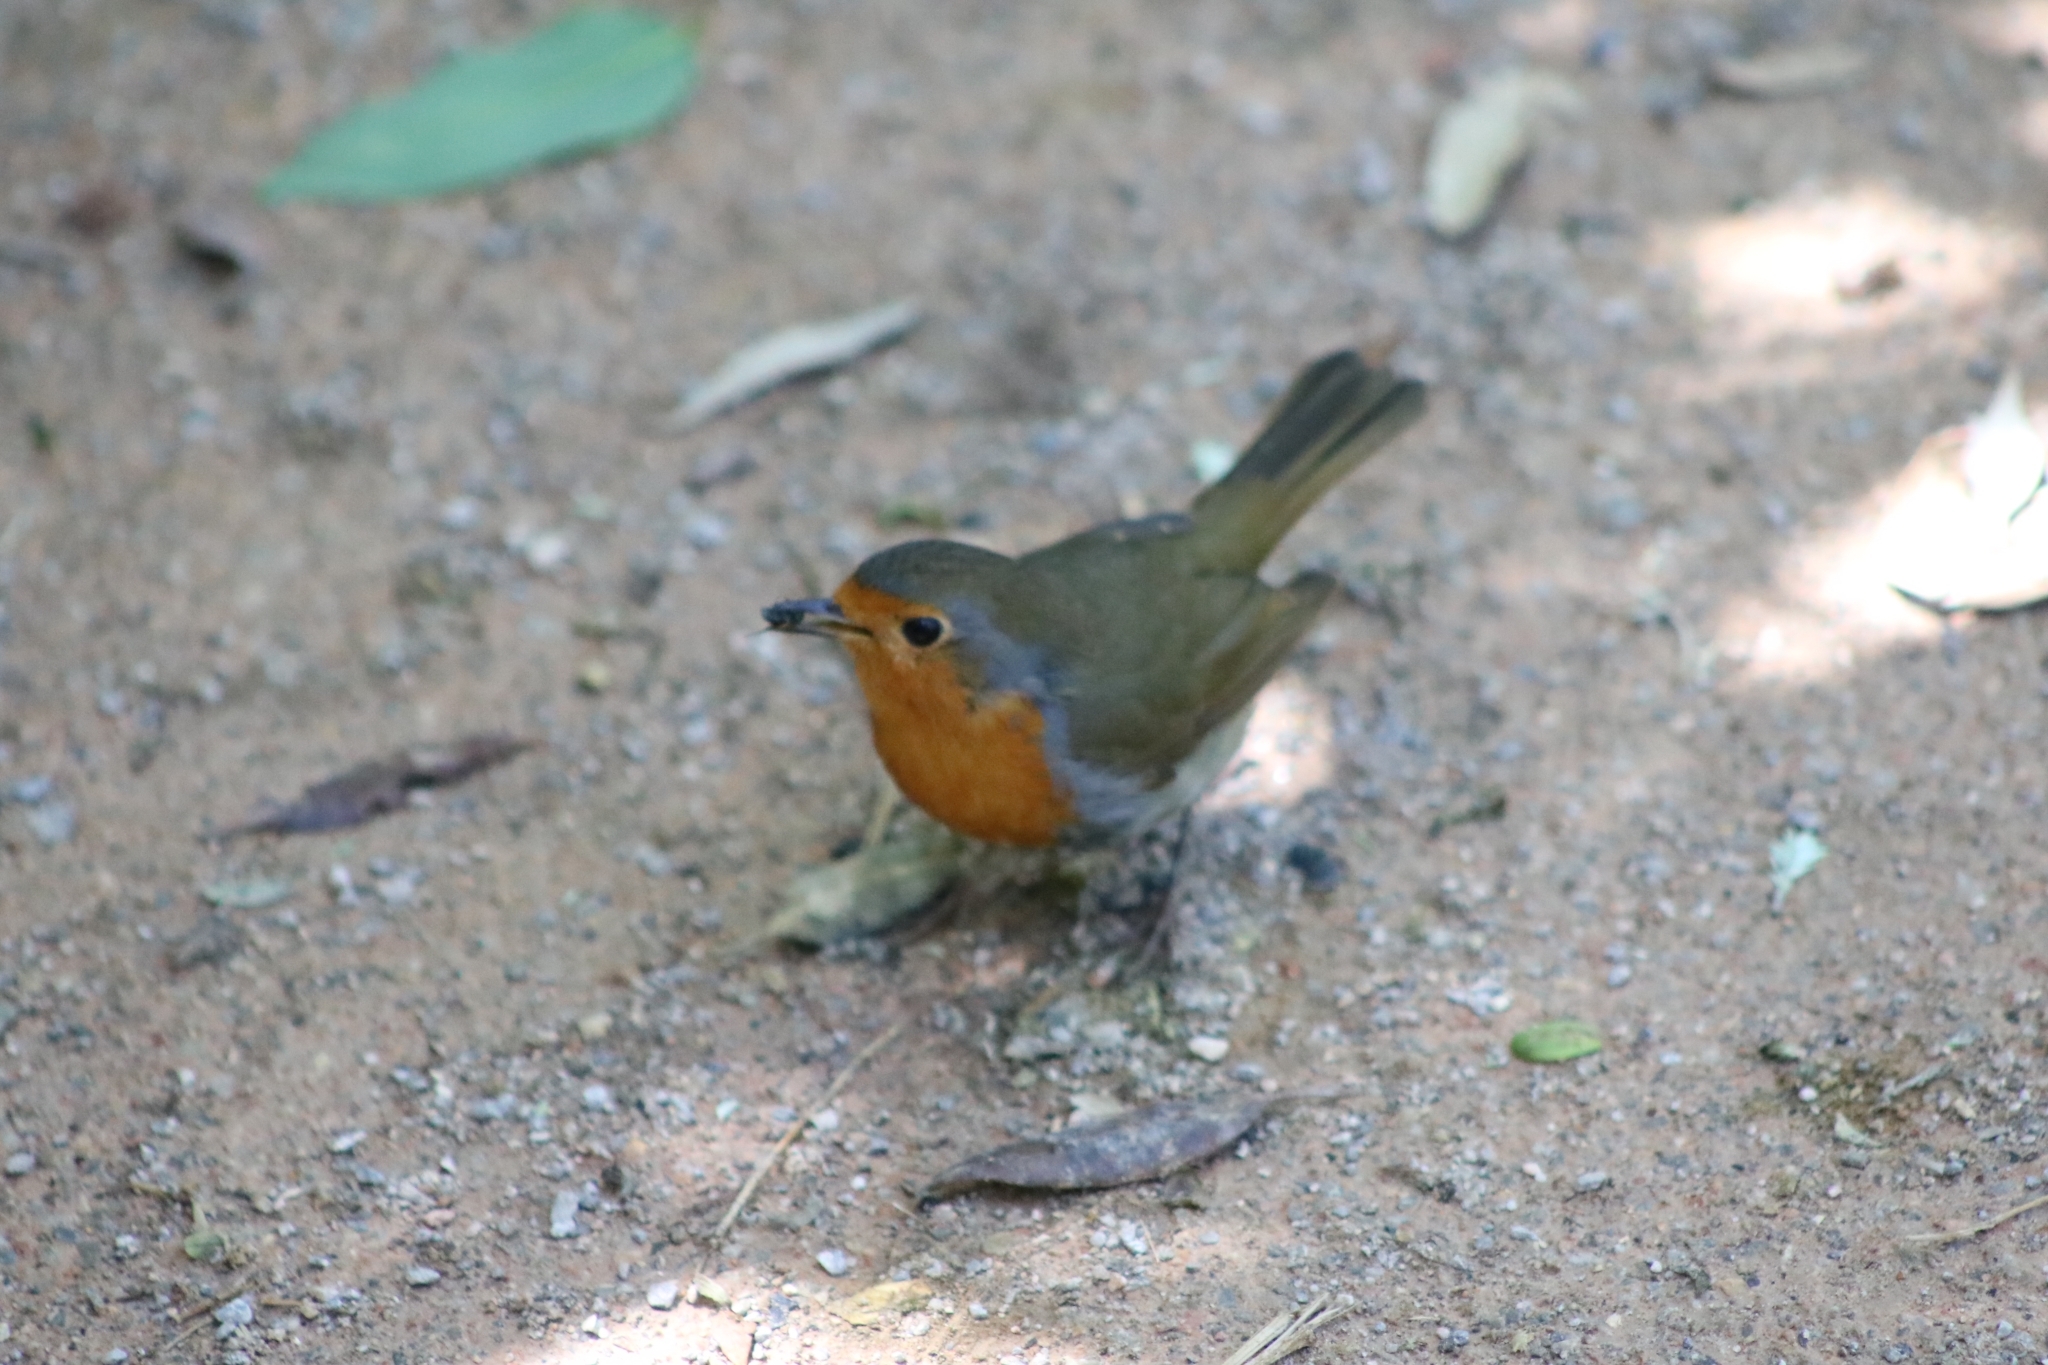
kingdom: Animalia
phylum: Chordata
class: Aves
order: Passeriformes
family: Muscicapidae
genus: Erithacus
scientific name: Erithacus rubecula
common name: European robin
